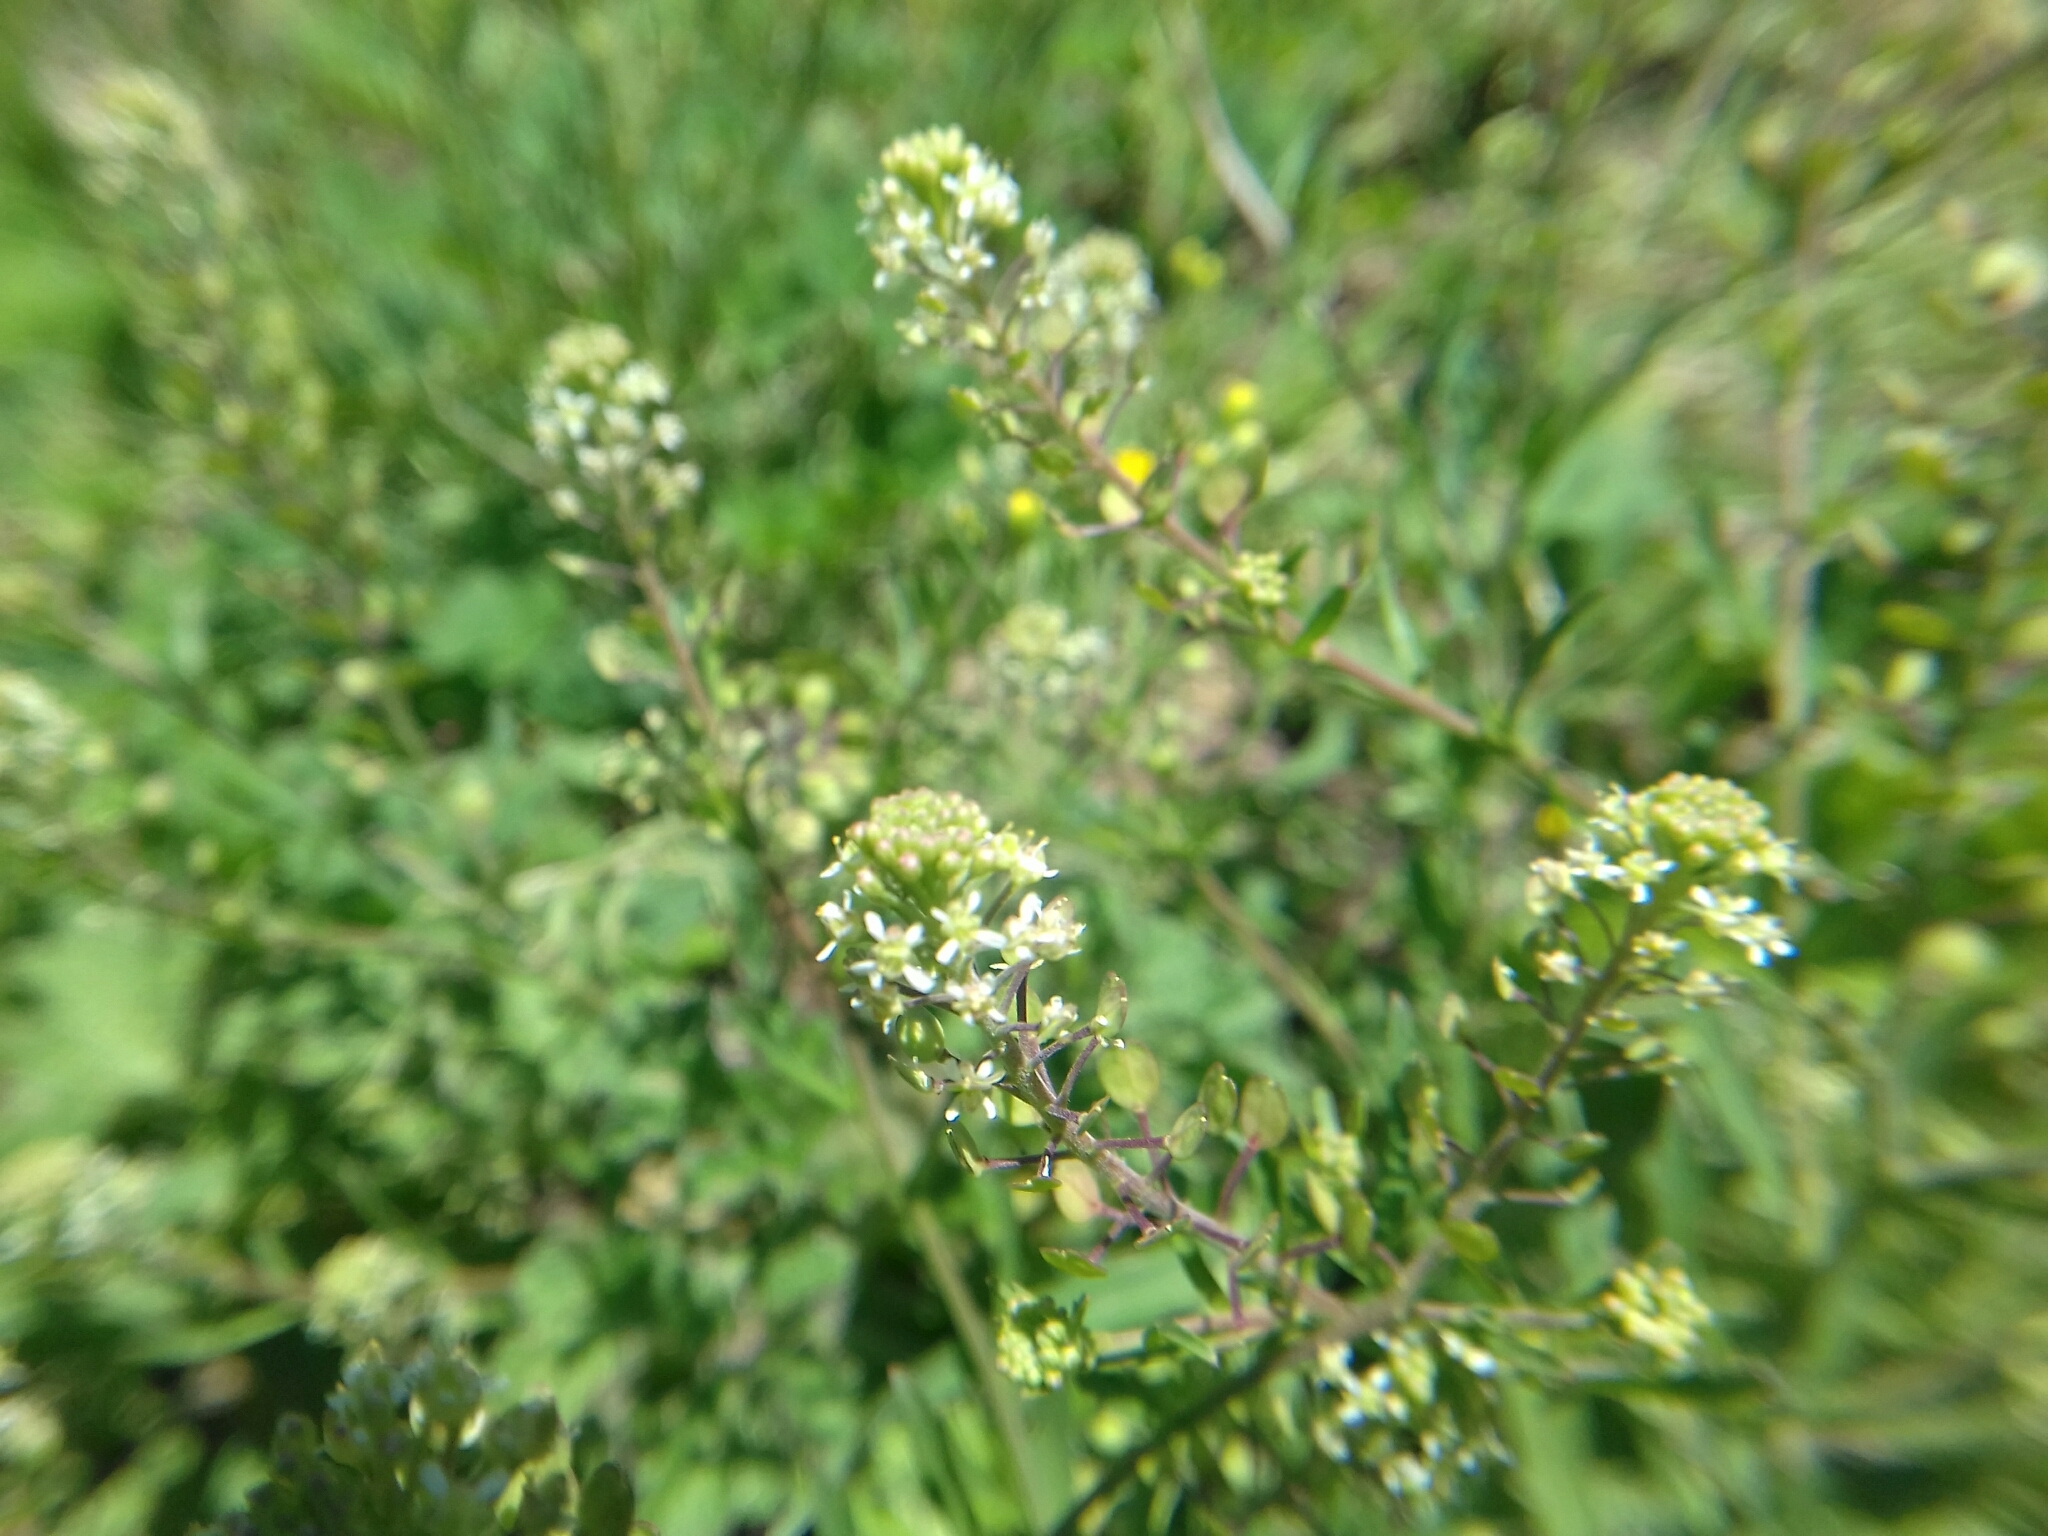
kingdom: Plantae
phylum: Tracheophyta
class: Magnoliopsida
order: Brassicales
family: Brassicaceae
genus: Lepidium
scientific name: Lepidium virginicum
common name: Least pepperwort
